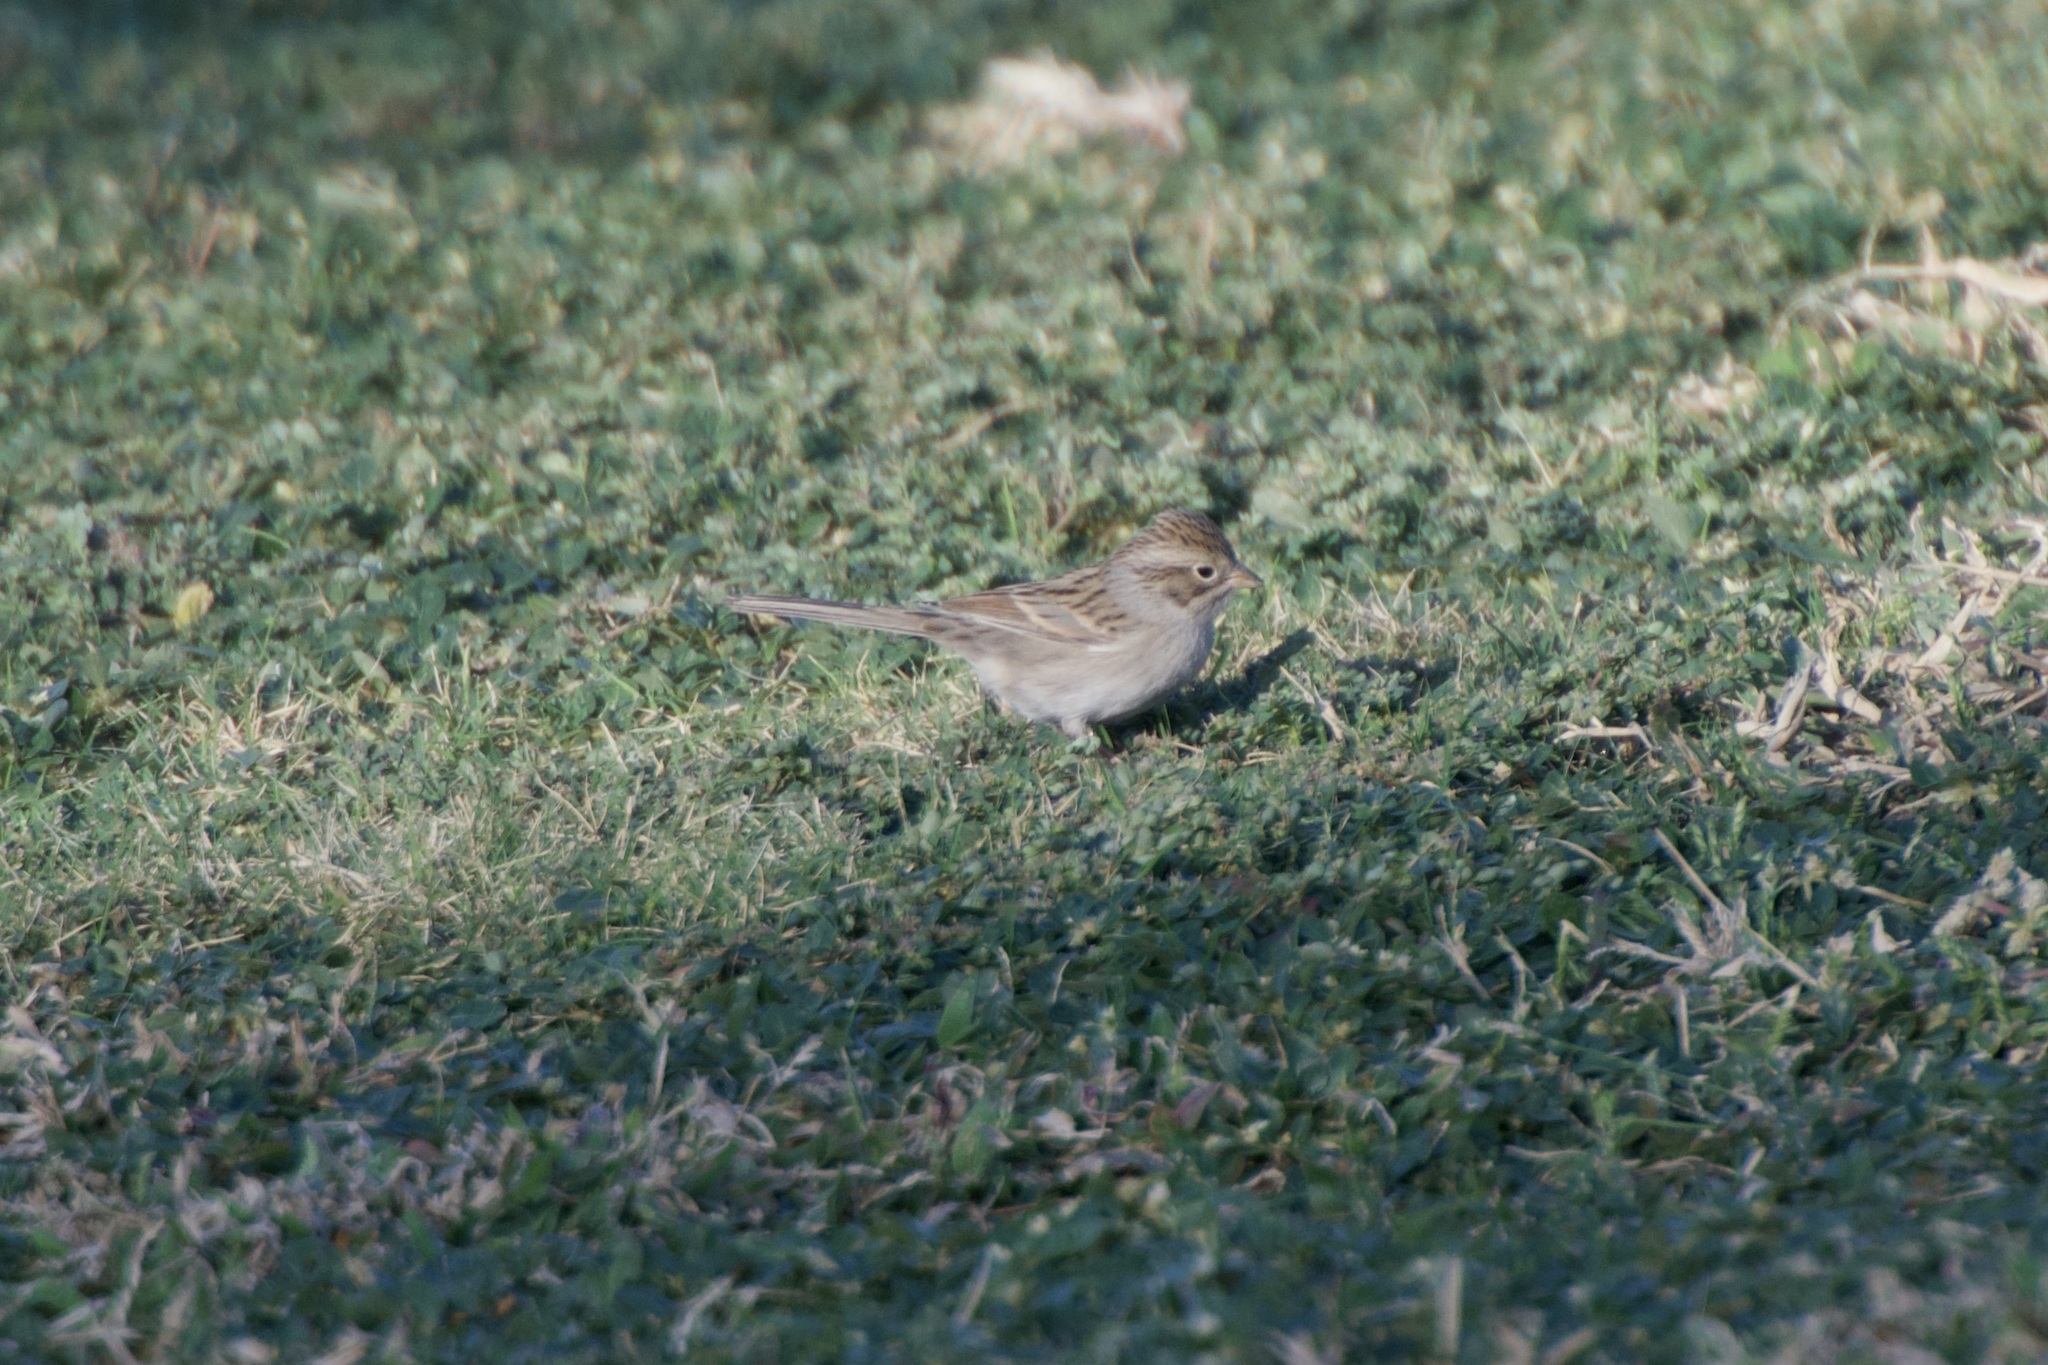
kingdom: Animalia
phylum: Chordata
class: Aves
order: Passeriformes
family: Passerellidae
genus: Spizella
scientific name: Spizella breweri
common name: Brewer's sparrow
